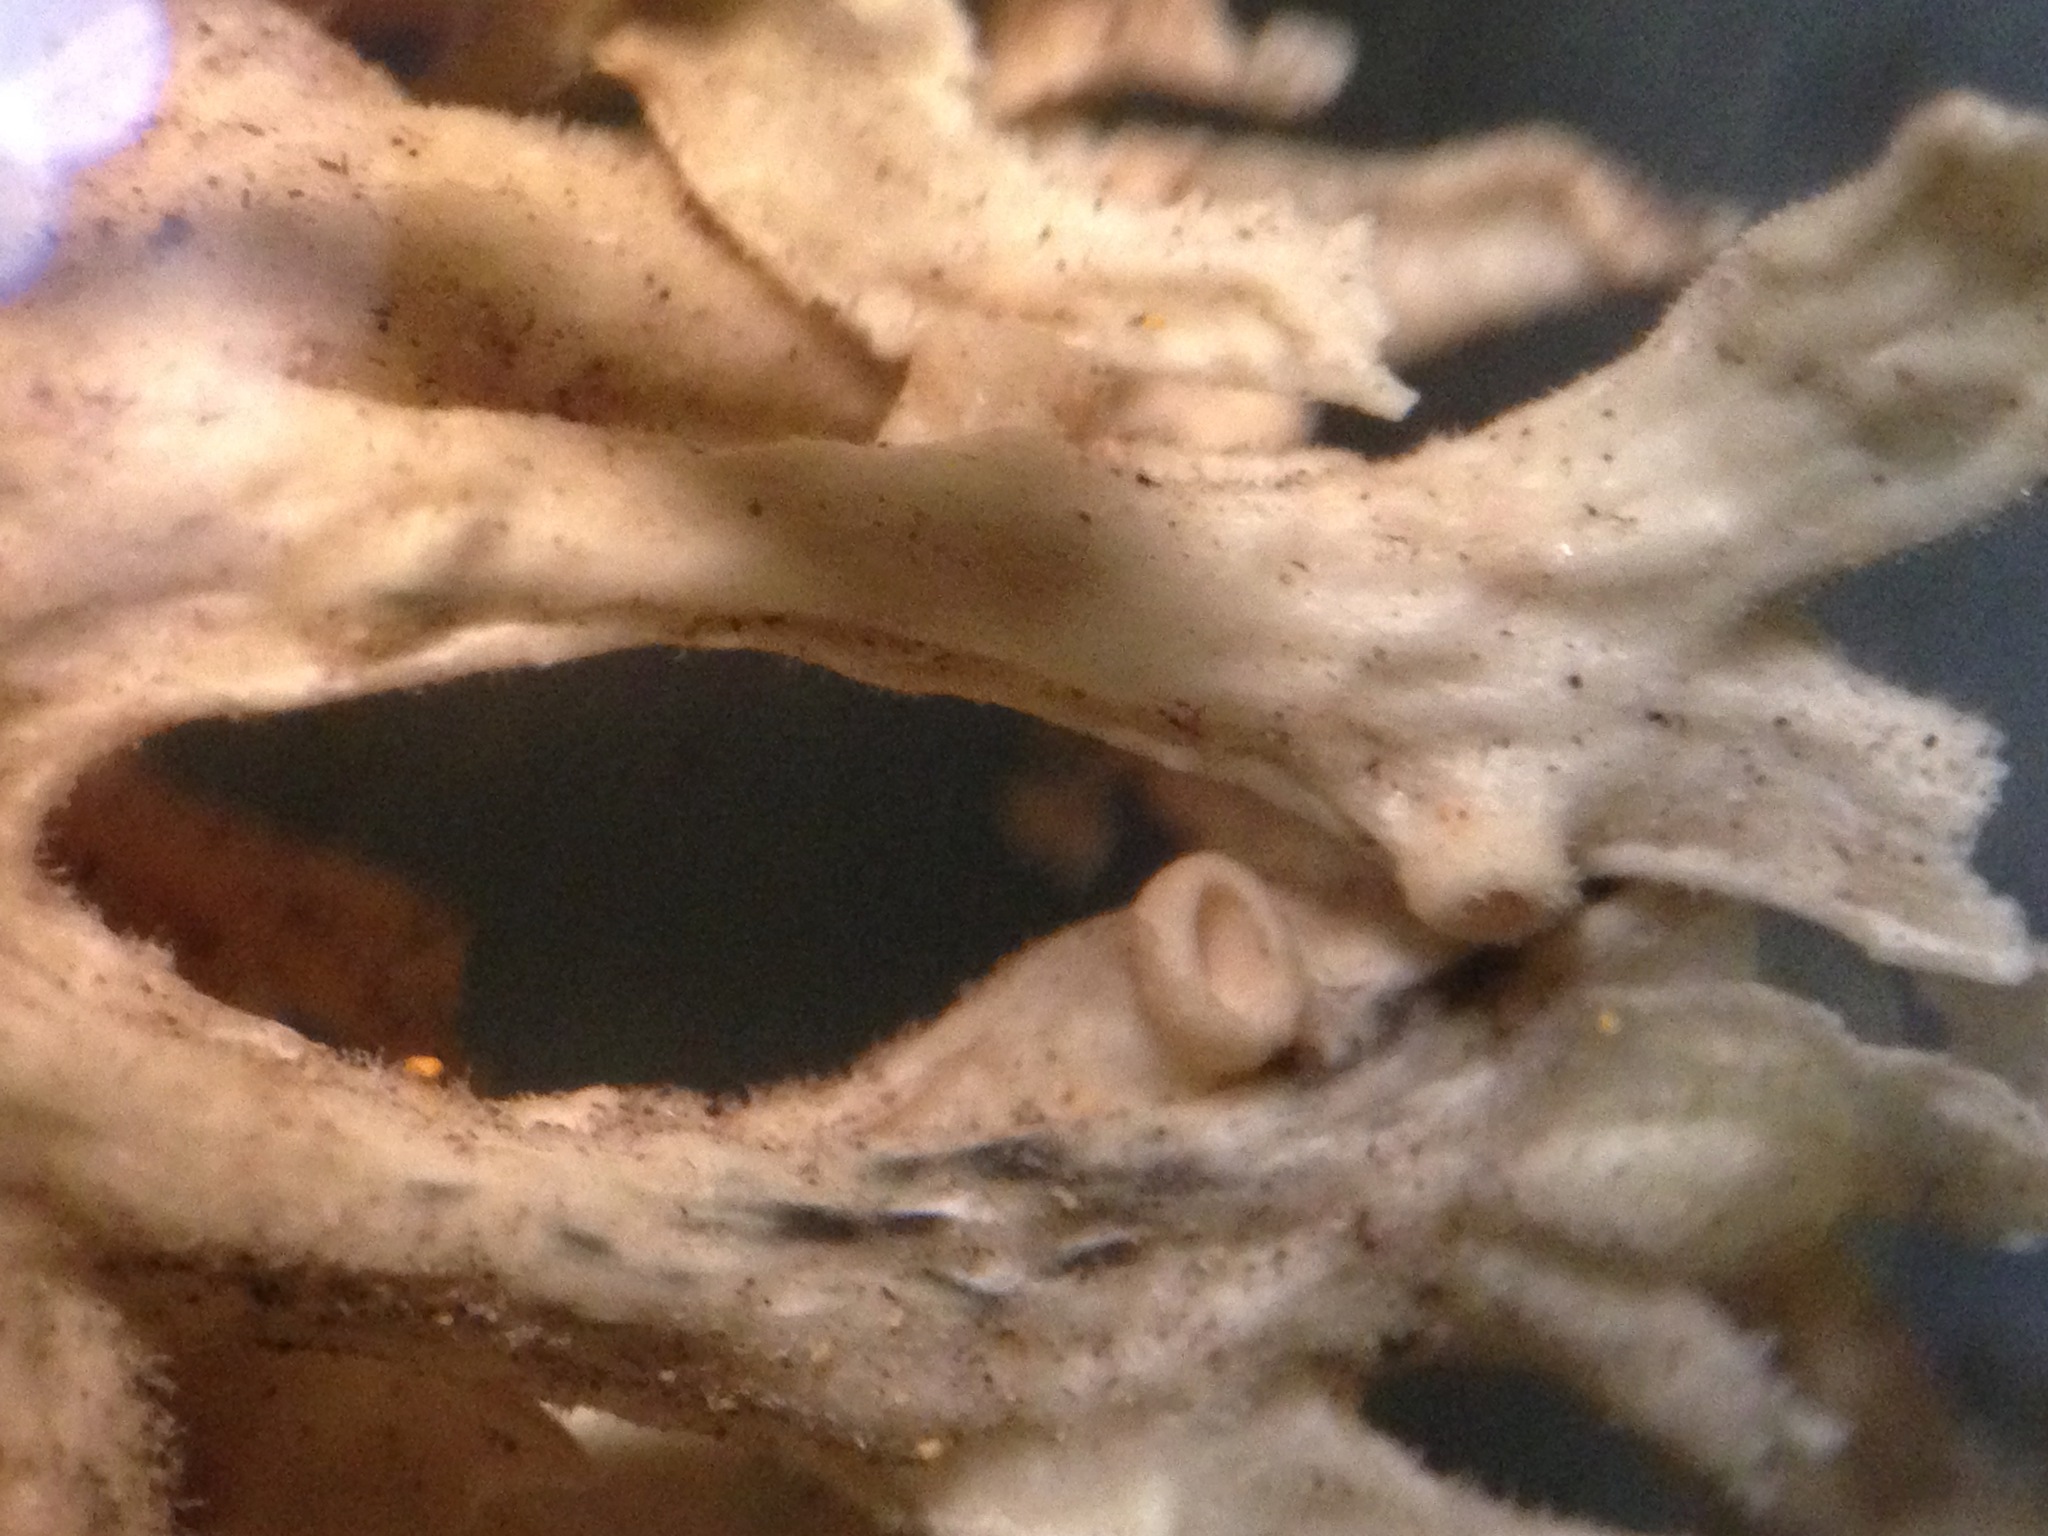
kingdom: Fungi
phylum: Ascomycota
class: Lecanoromycetes
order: Lecanorales
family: Ramalinaceae
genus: Ramalina
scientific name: Ramalina
